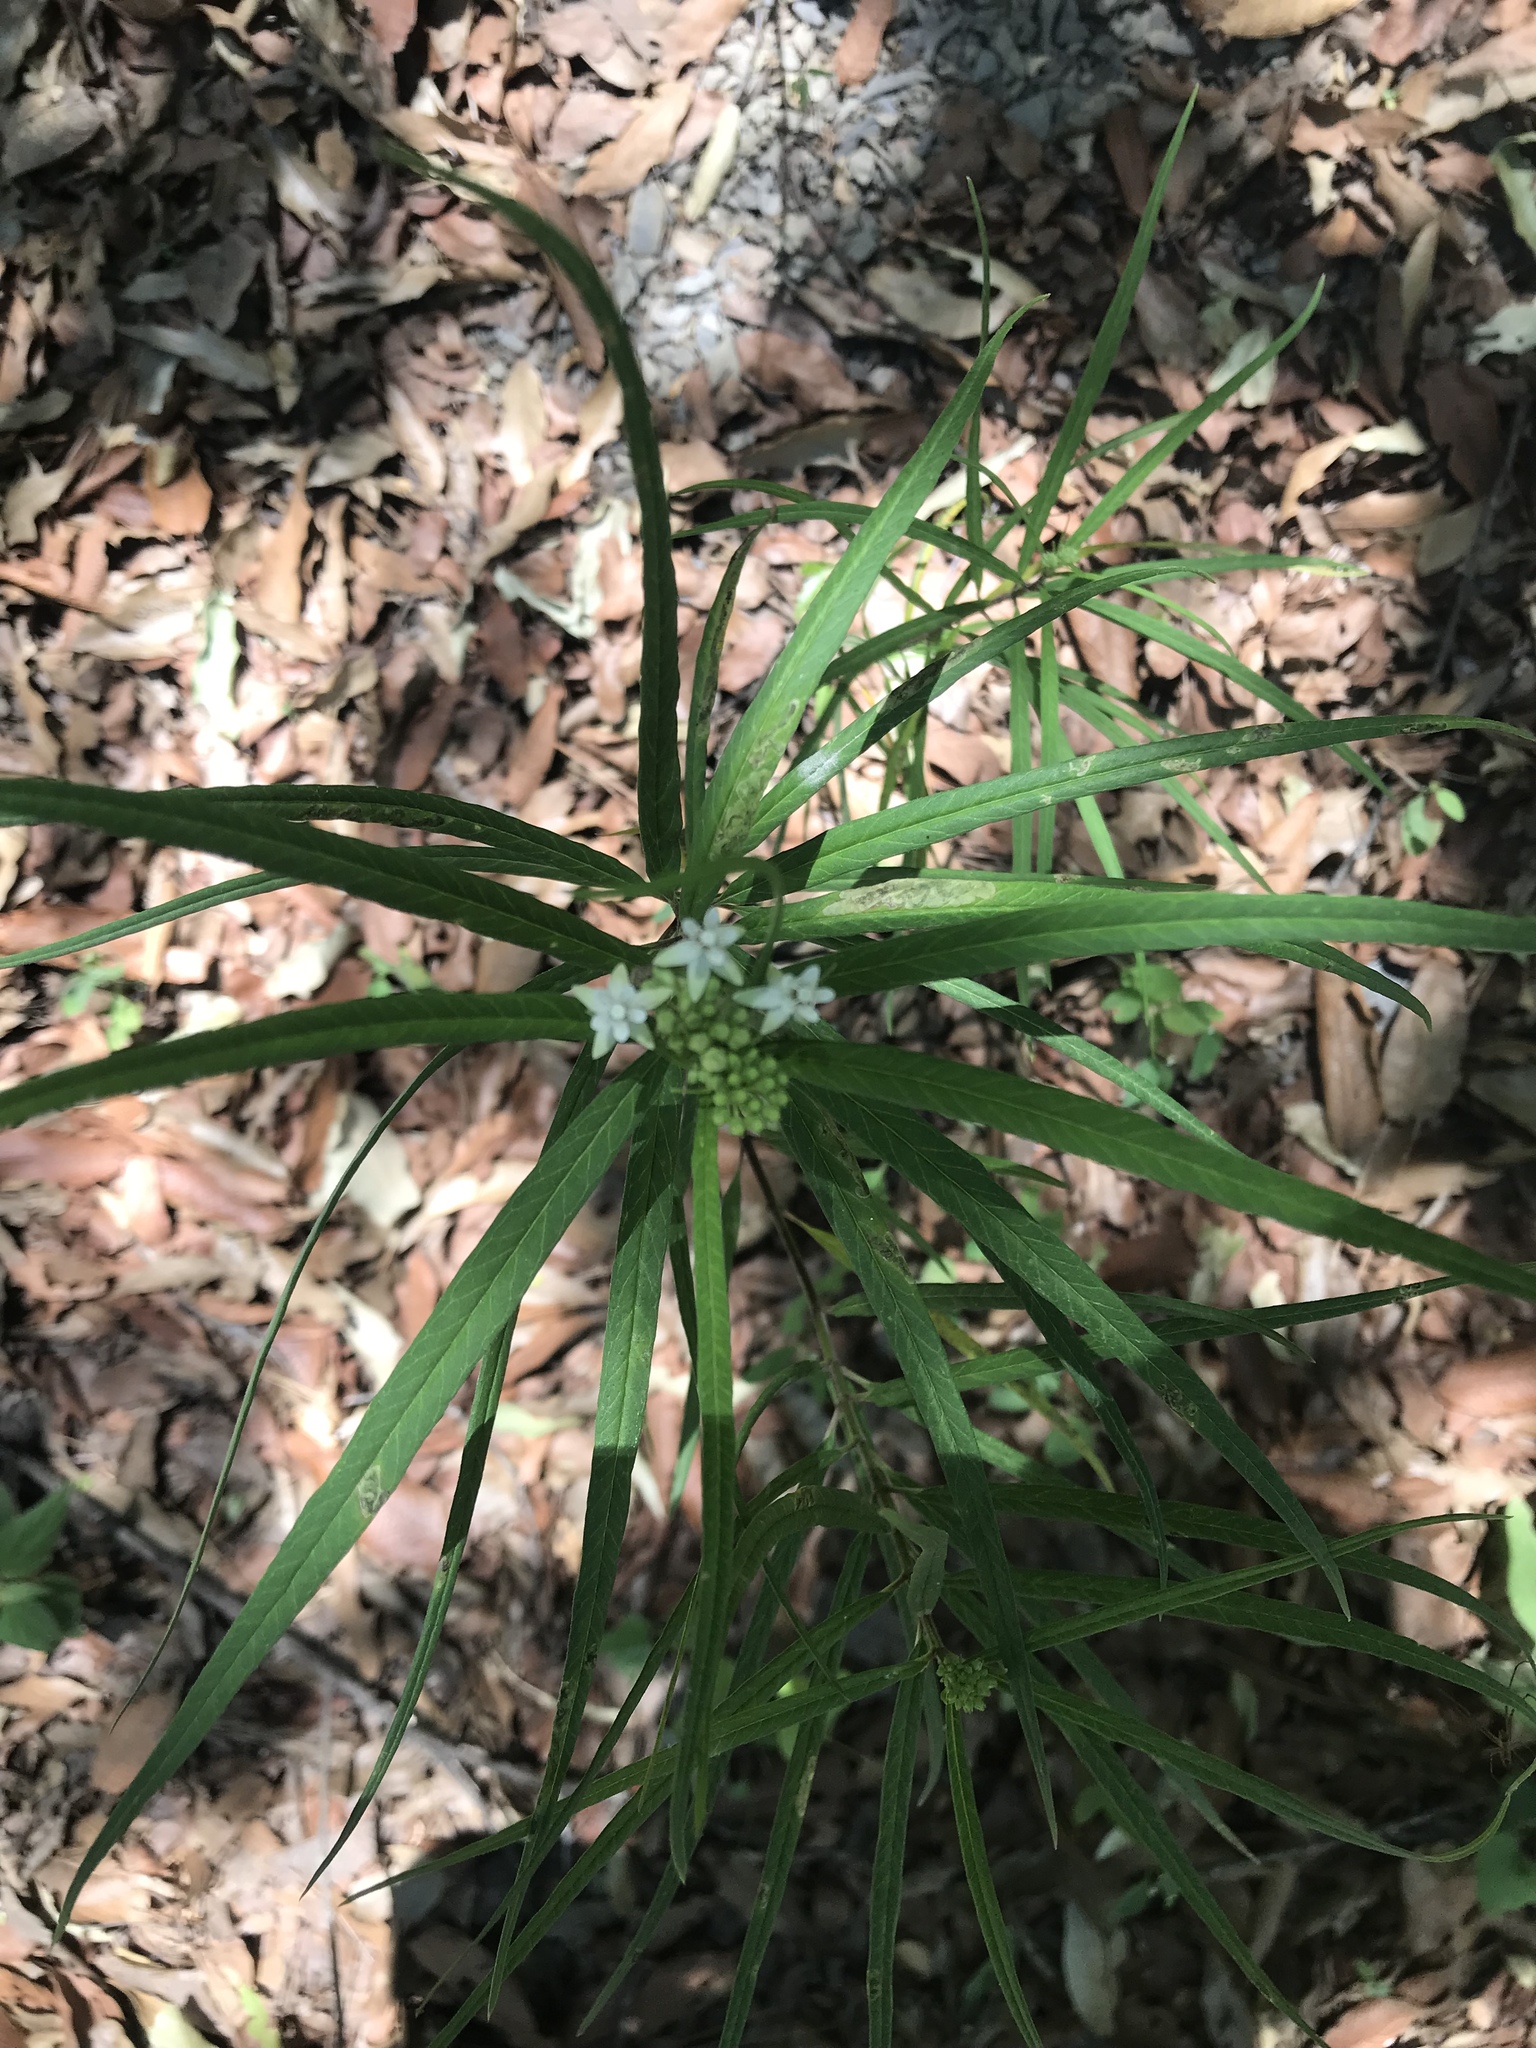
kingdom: Plantae
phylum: Tracheophyta
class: Magnoliopsida
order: Gentianales
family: Apocynaceae
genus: Asclepias
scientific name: Asclepias angustifolia
